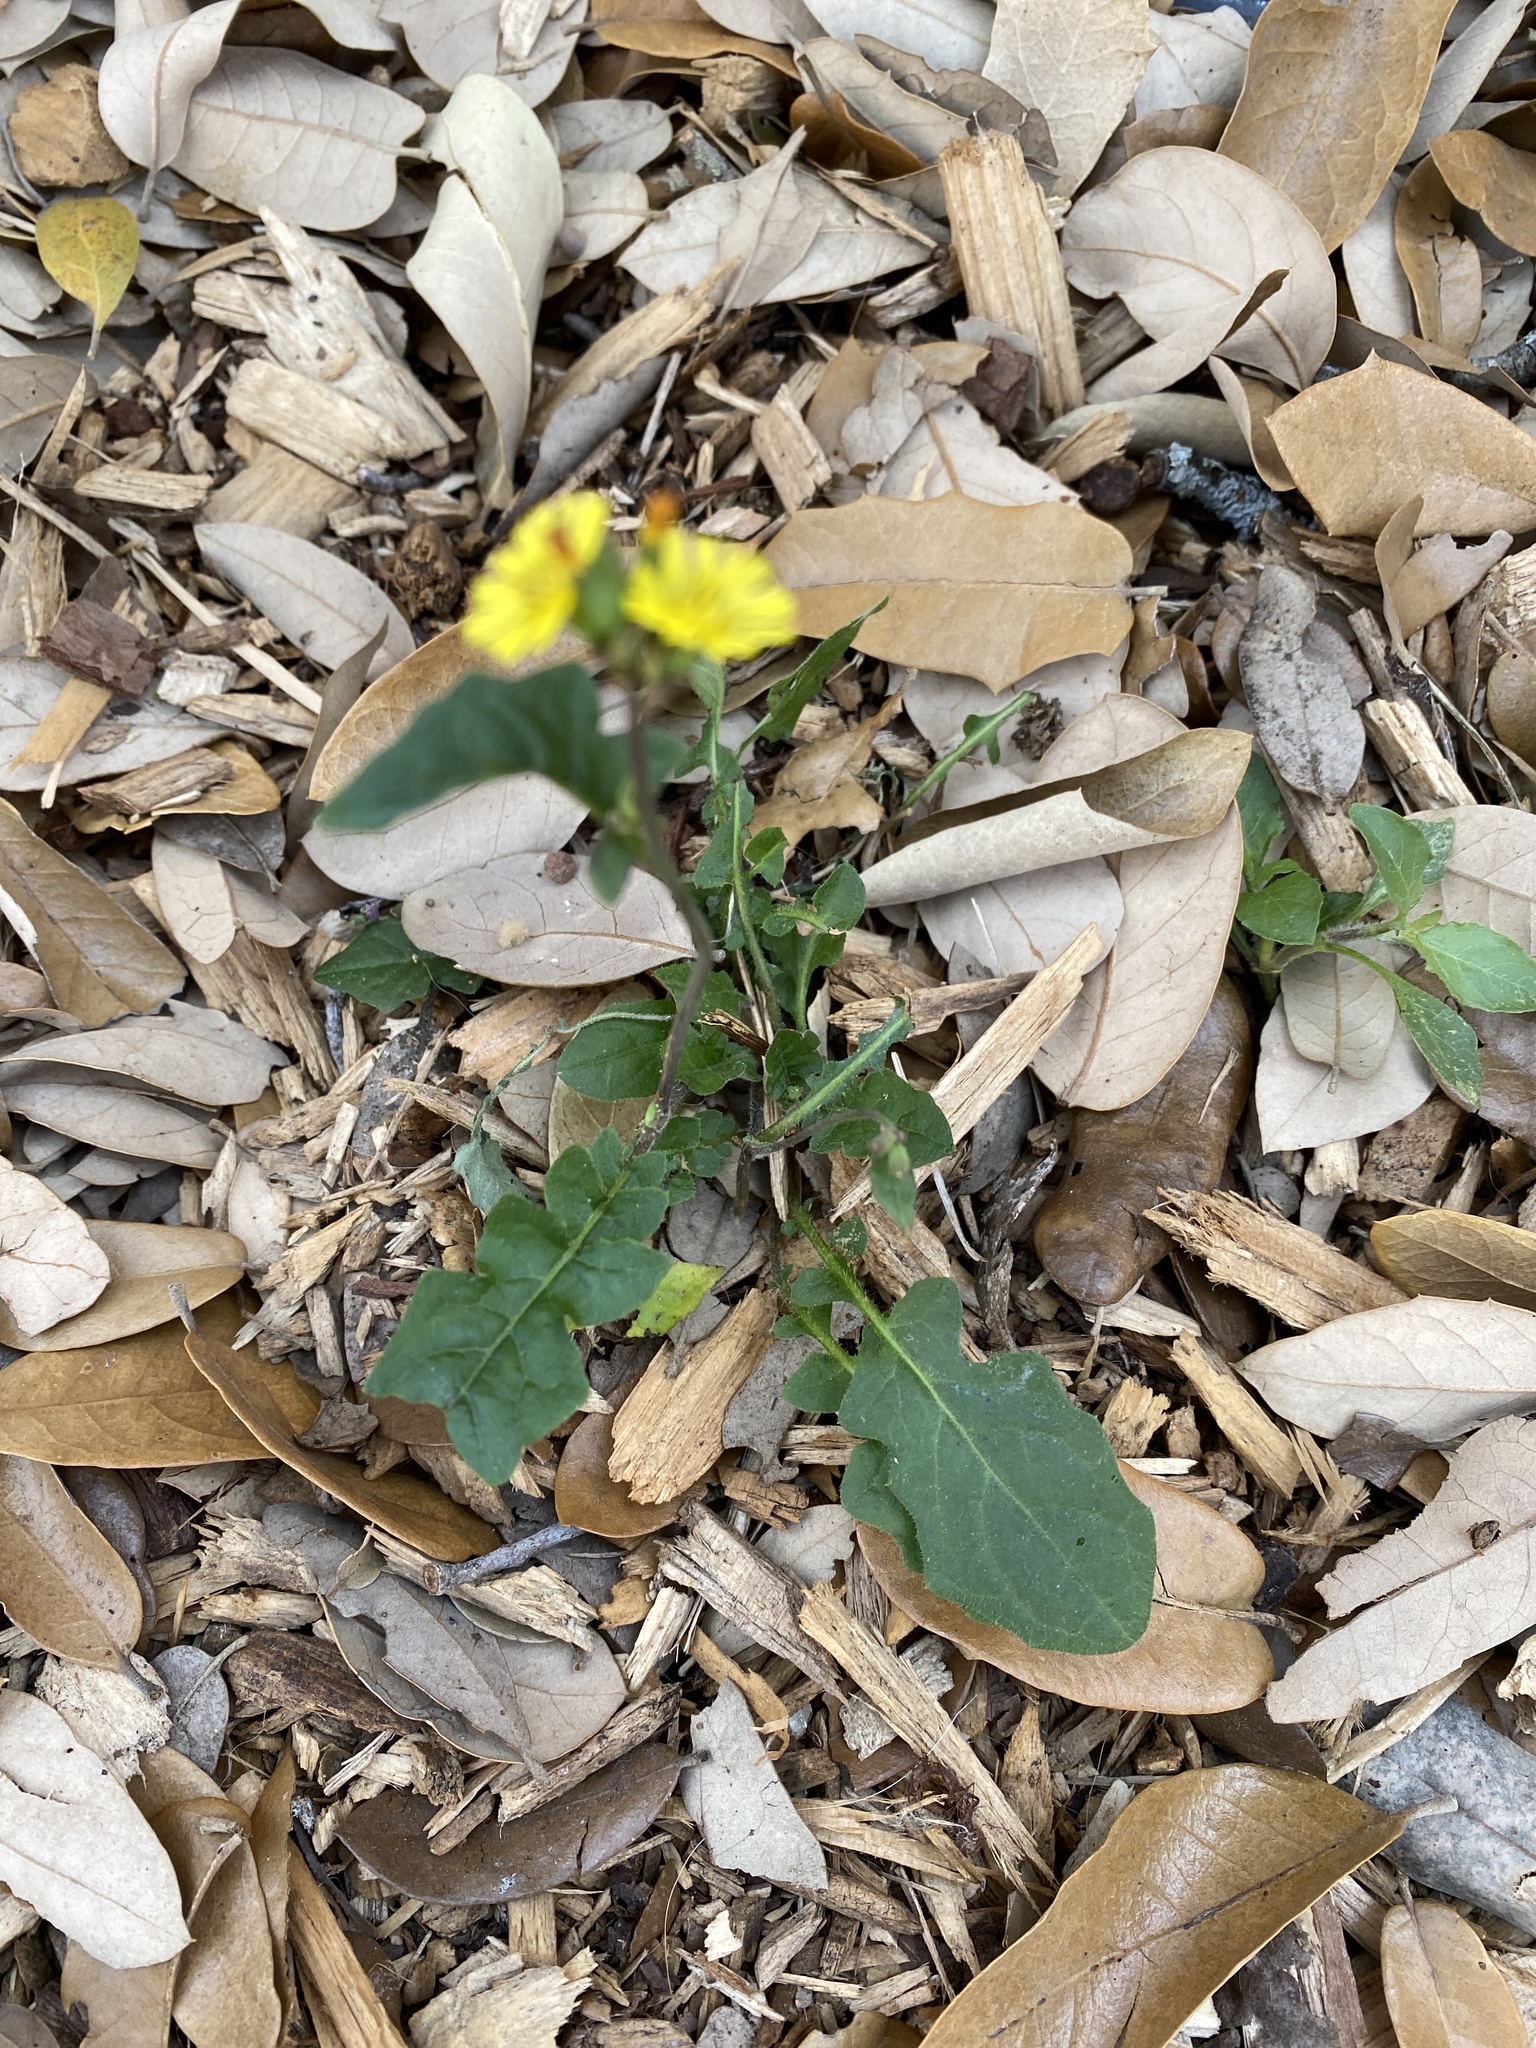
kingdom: Plantae
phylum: Tracheophyta
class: Magnoliopsida
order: Asterales
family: Asteraceae
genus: Youngia
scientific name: Youngia japonica
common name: Oriental false hawksbeard
